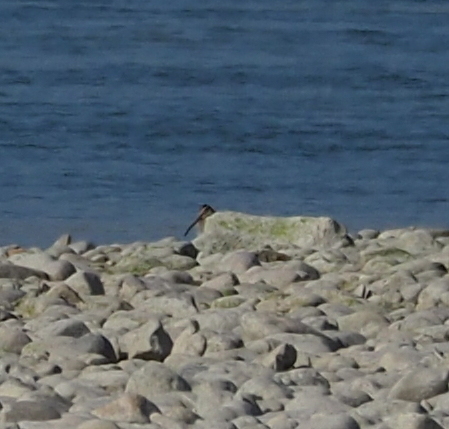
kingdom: Animalia
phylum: Chordata
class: Aves
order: Charadriiformes
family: Scolopacidae
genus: Gallinago
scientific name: Gallinago gallinago
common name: Common snipe
